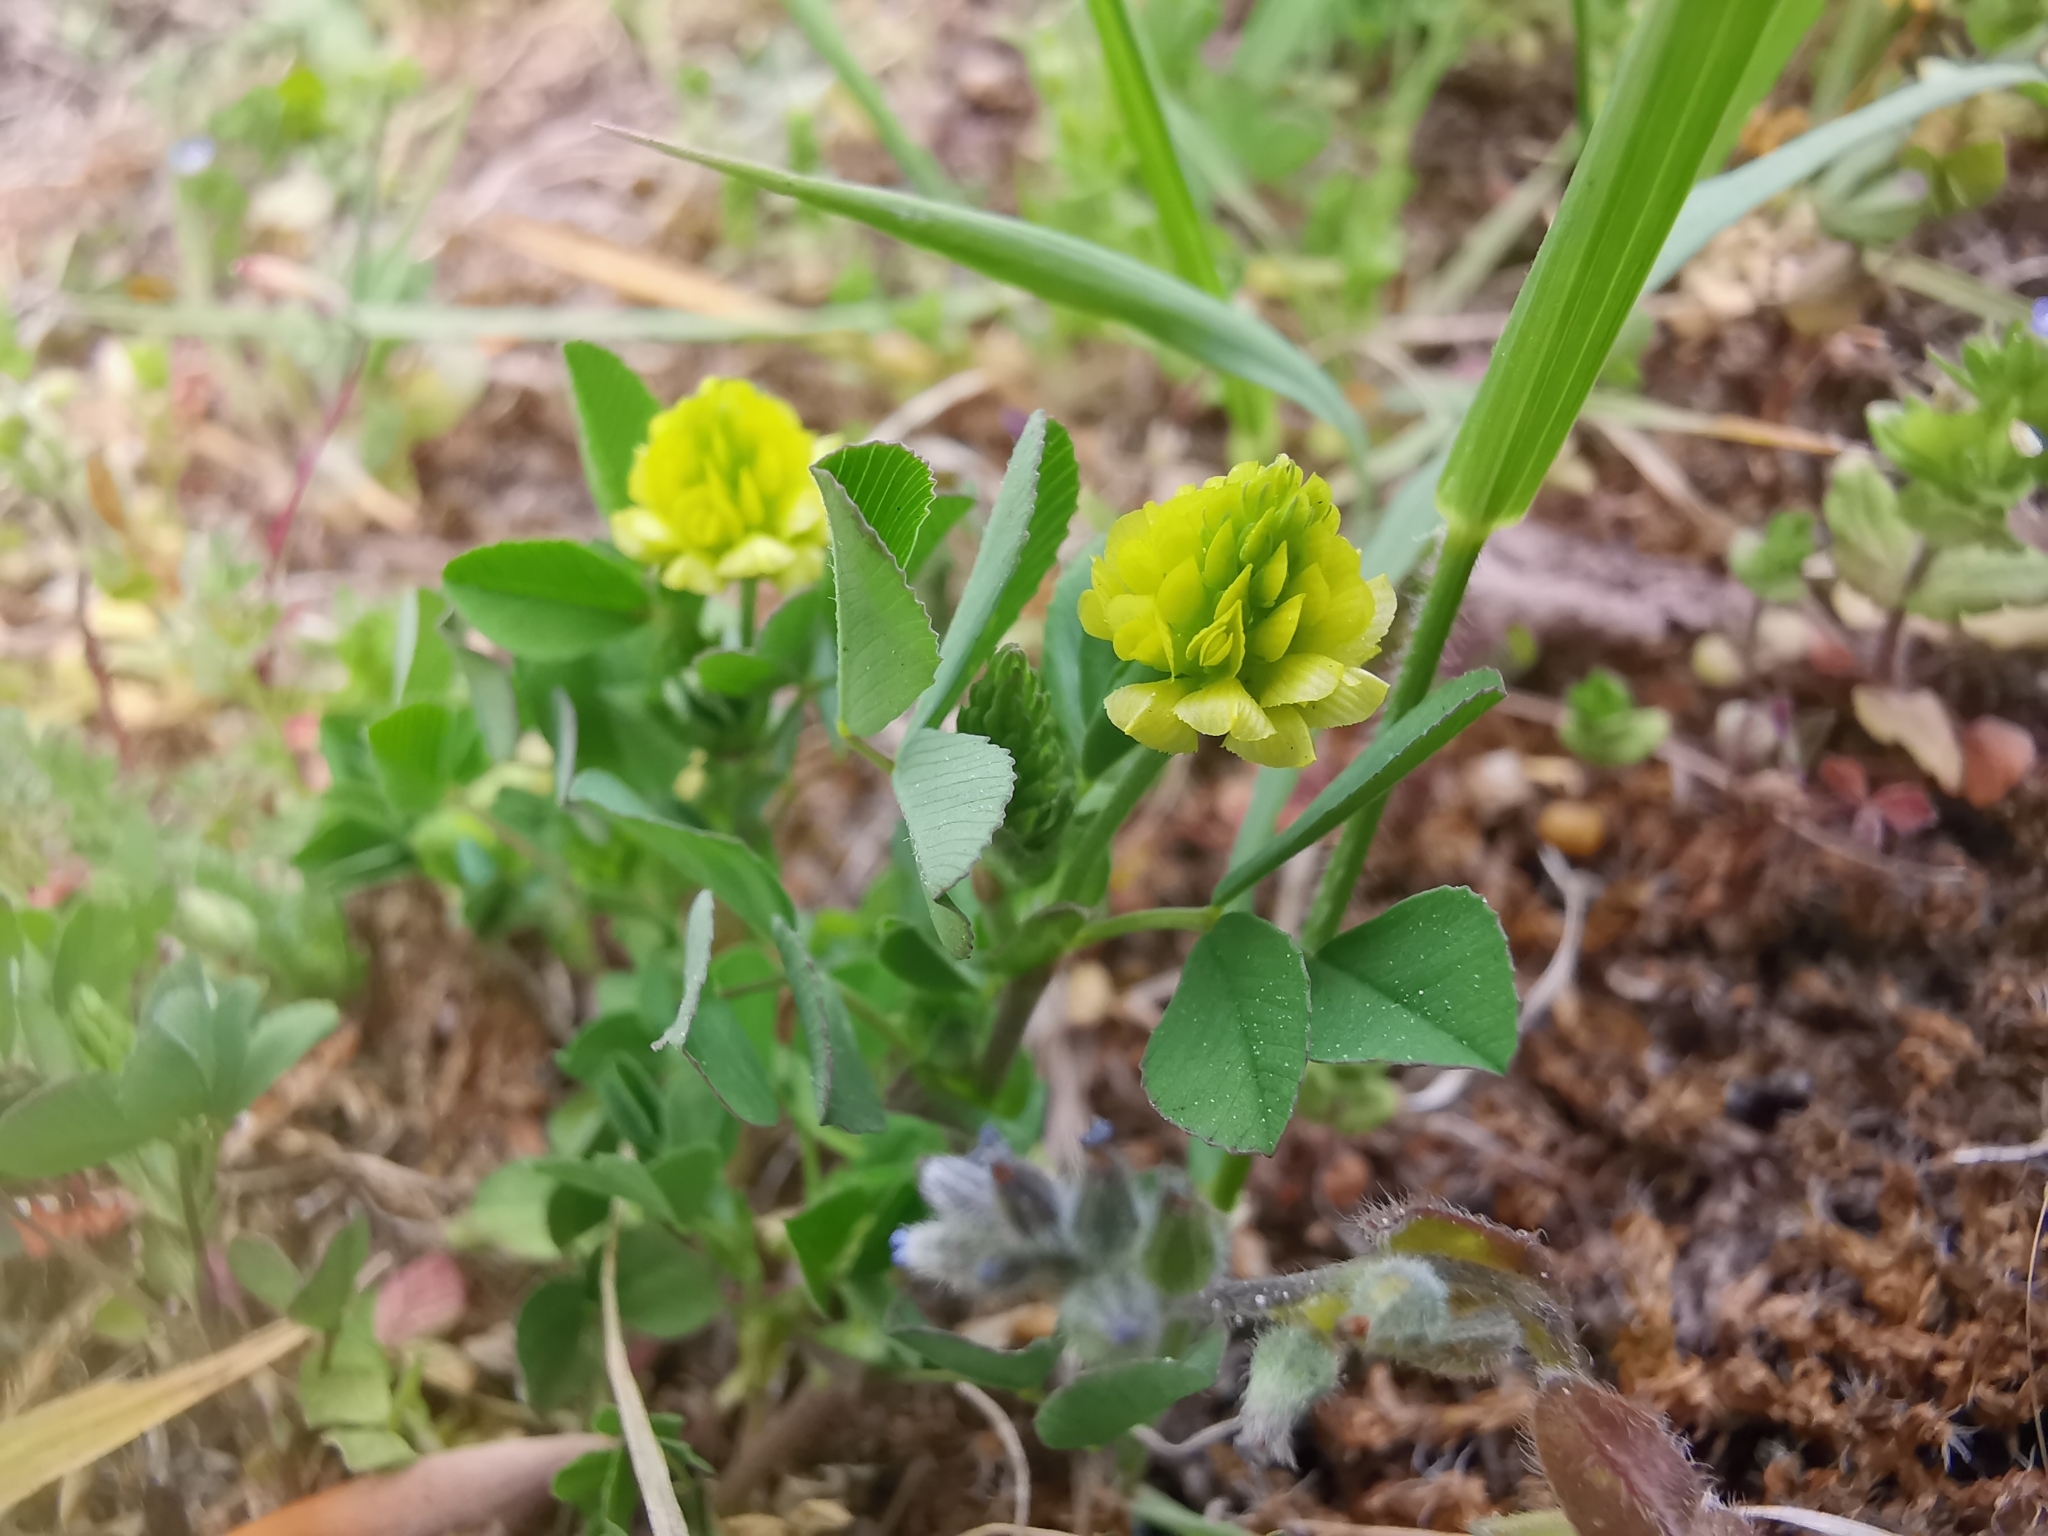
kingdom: Plantae
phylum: Tracheophyta
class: Magnoliopsida
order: Fabales
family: Fabaceae
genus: Trifolium
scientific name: Trifolium campestre
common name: Field clover
